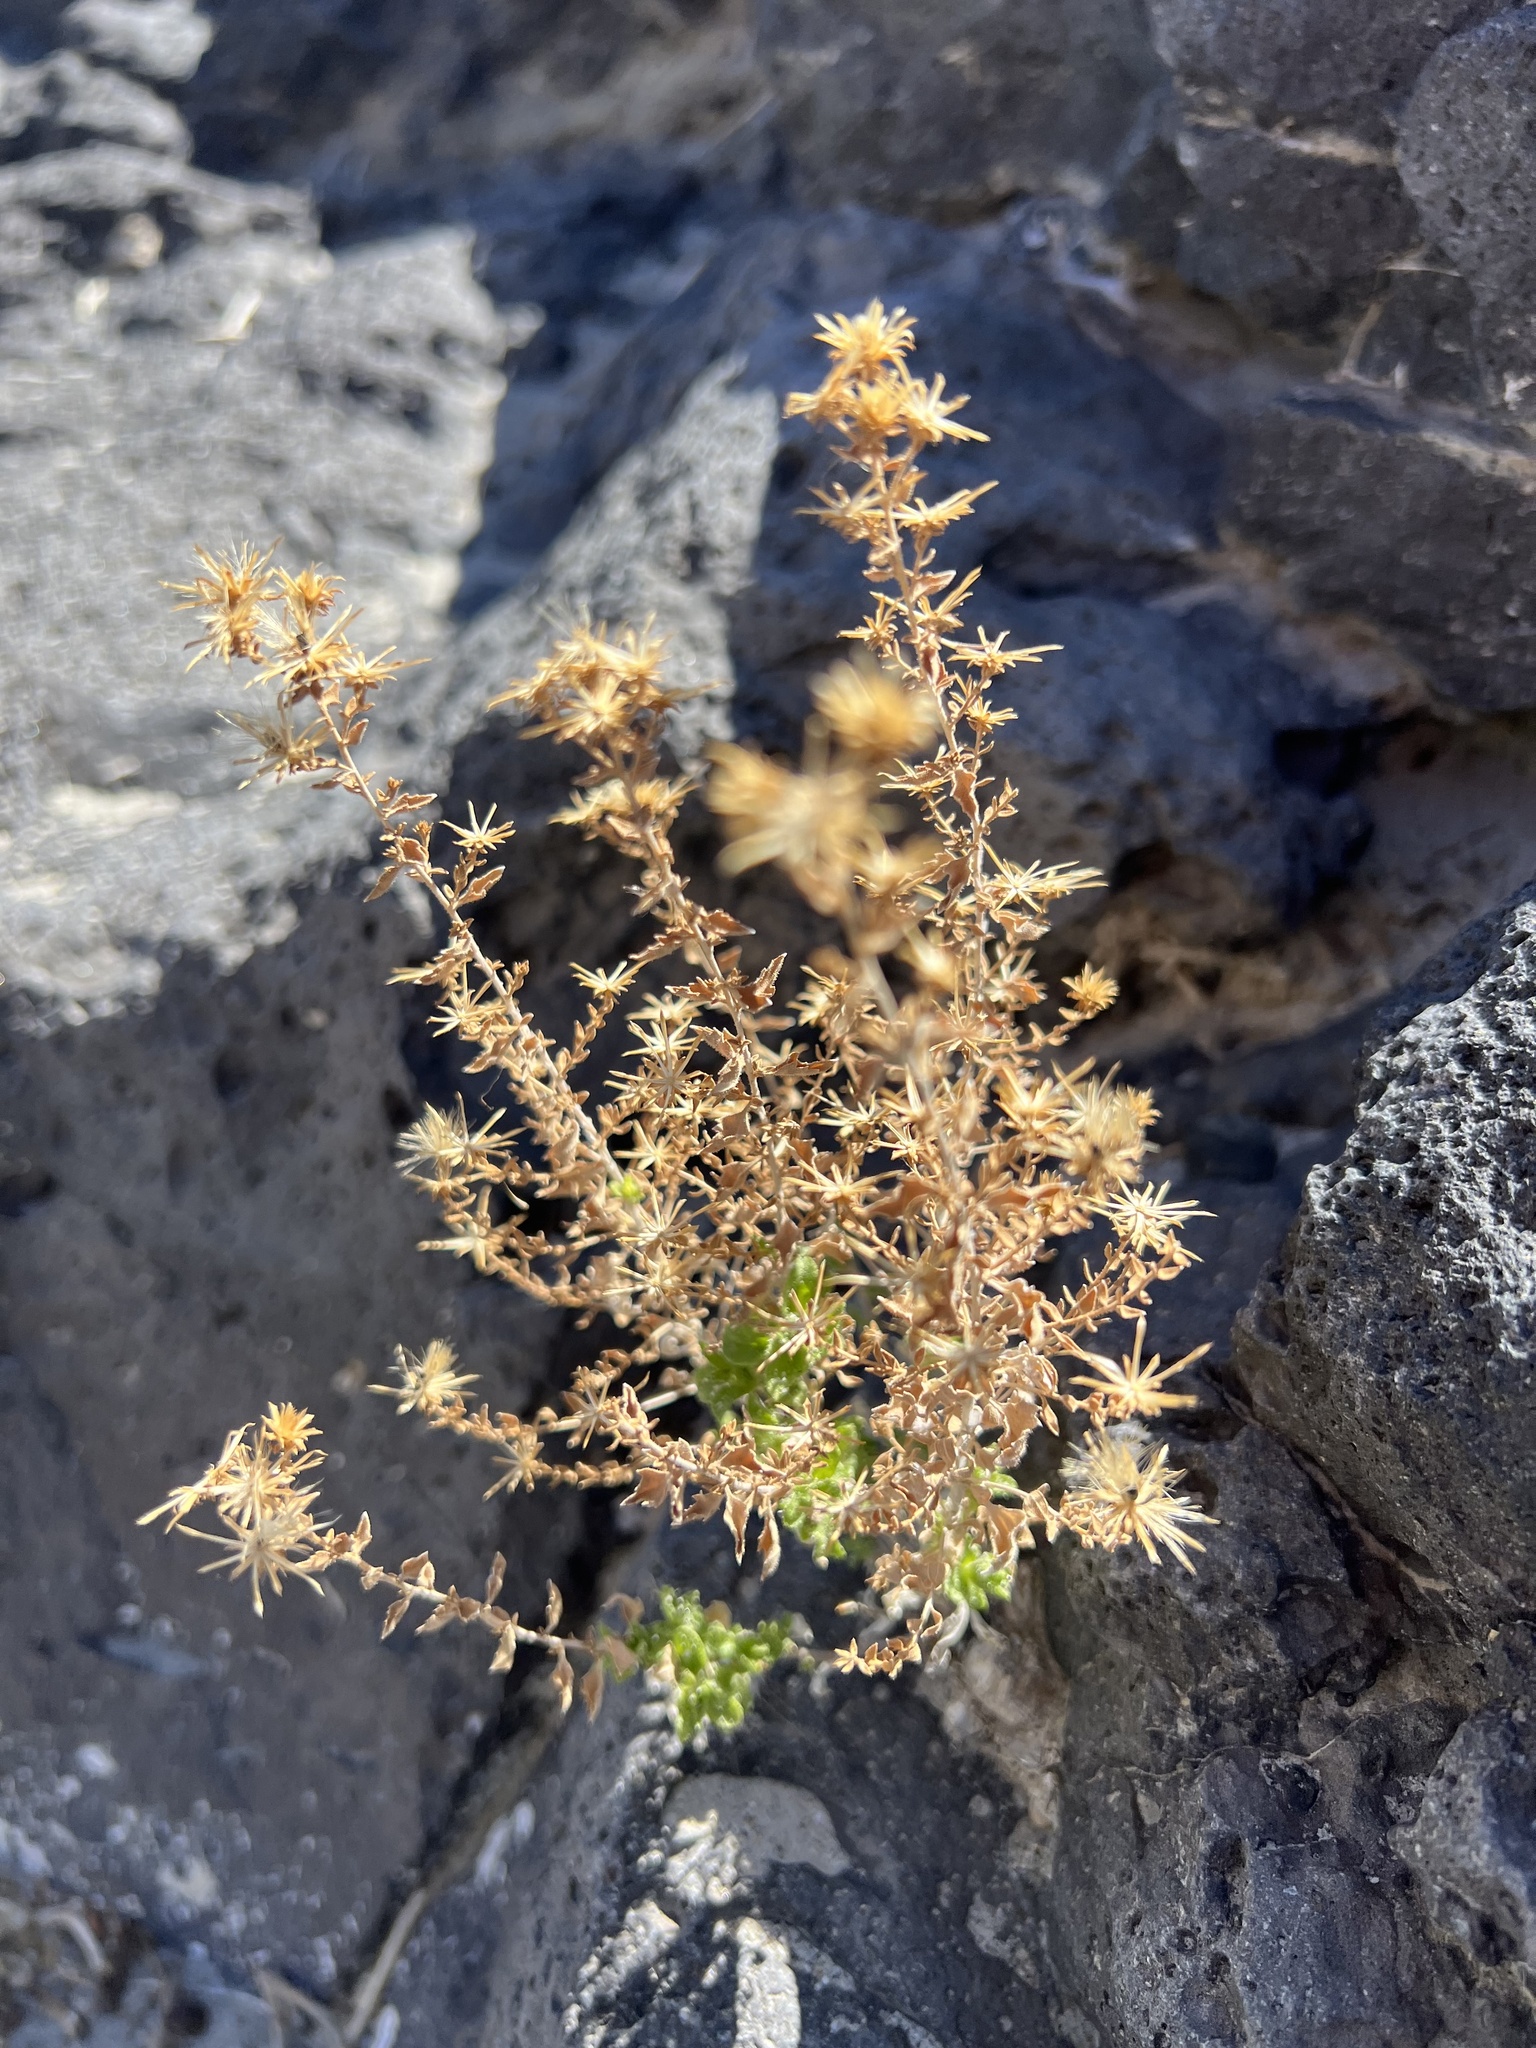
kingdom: Plantae
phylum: Tracheophyta
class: Magnoliopsida
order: Asterales
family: Asteraceae
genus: Brickellia
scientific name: Brickellia microphylla
